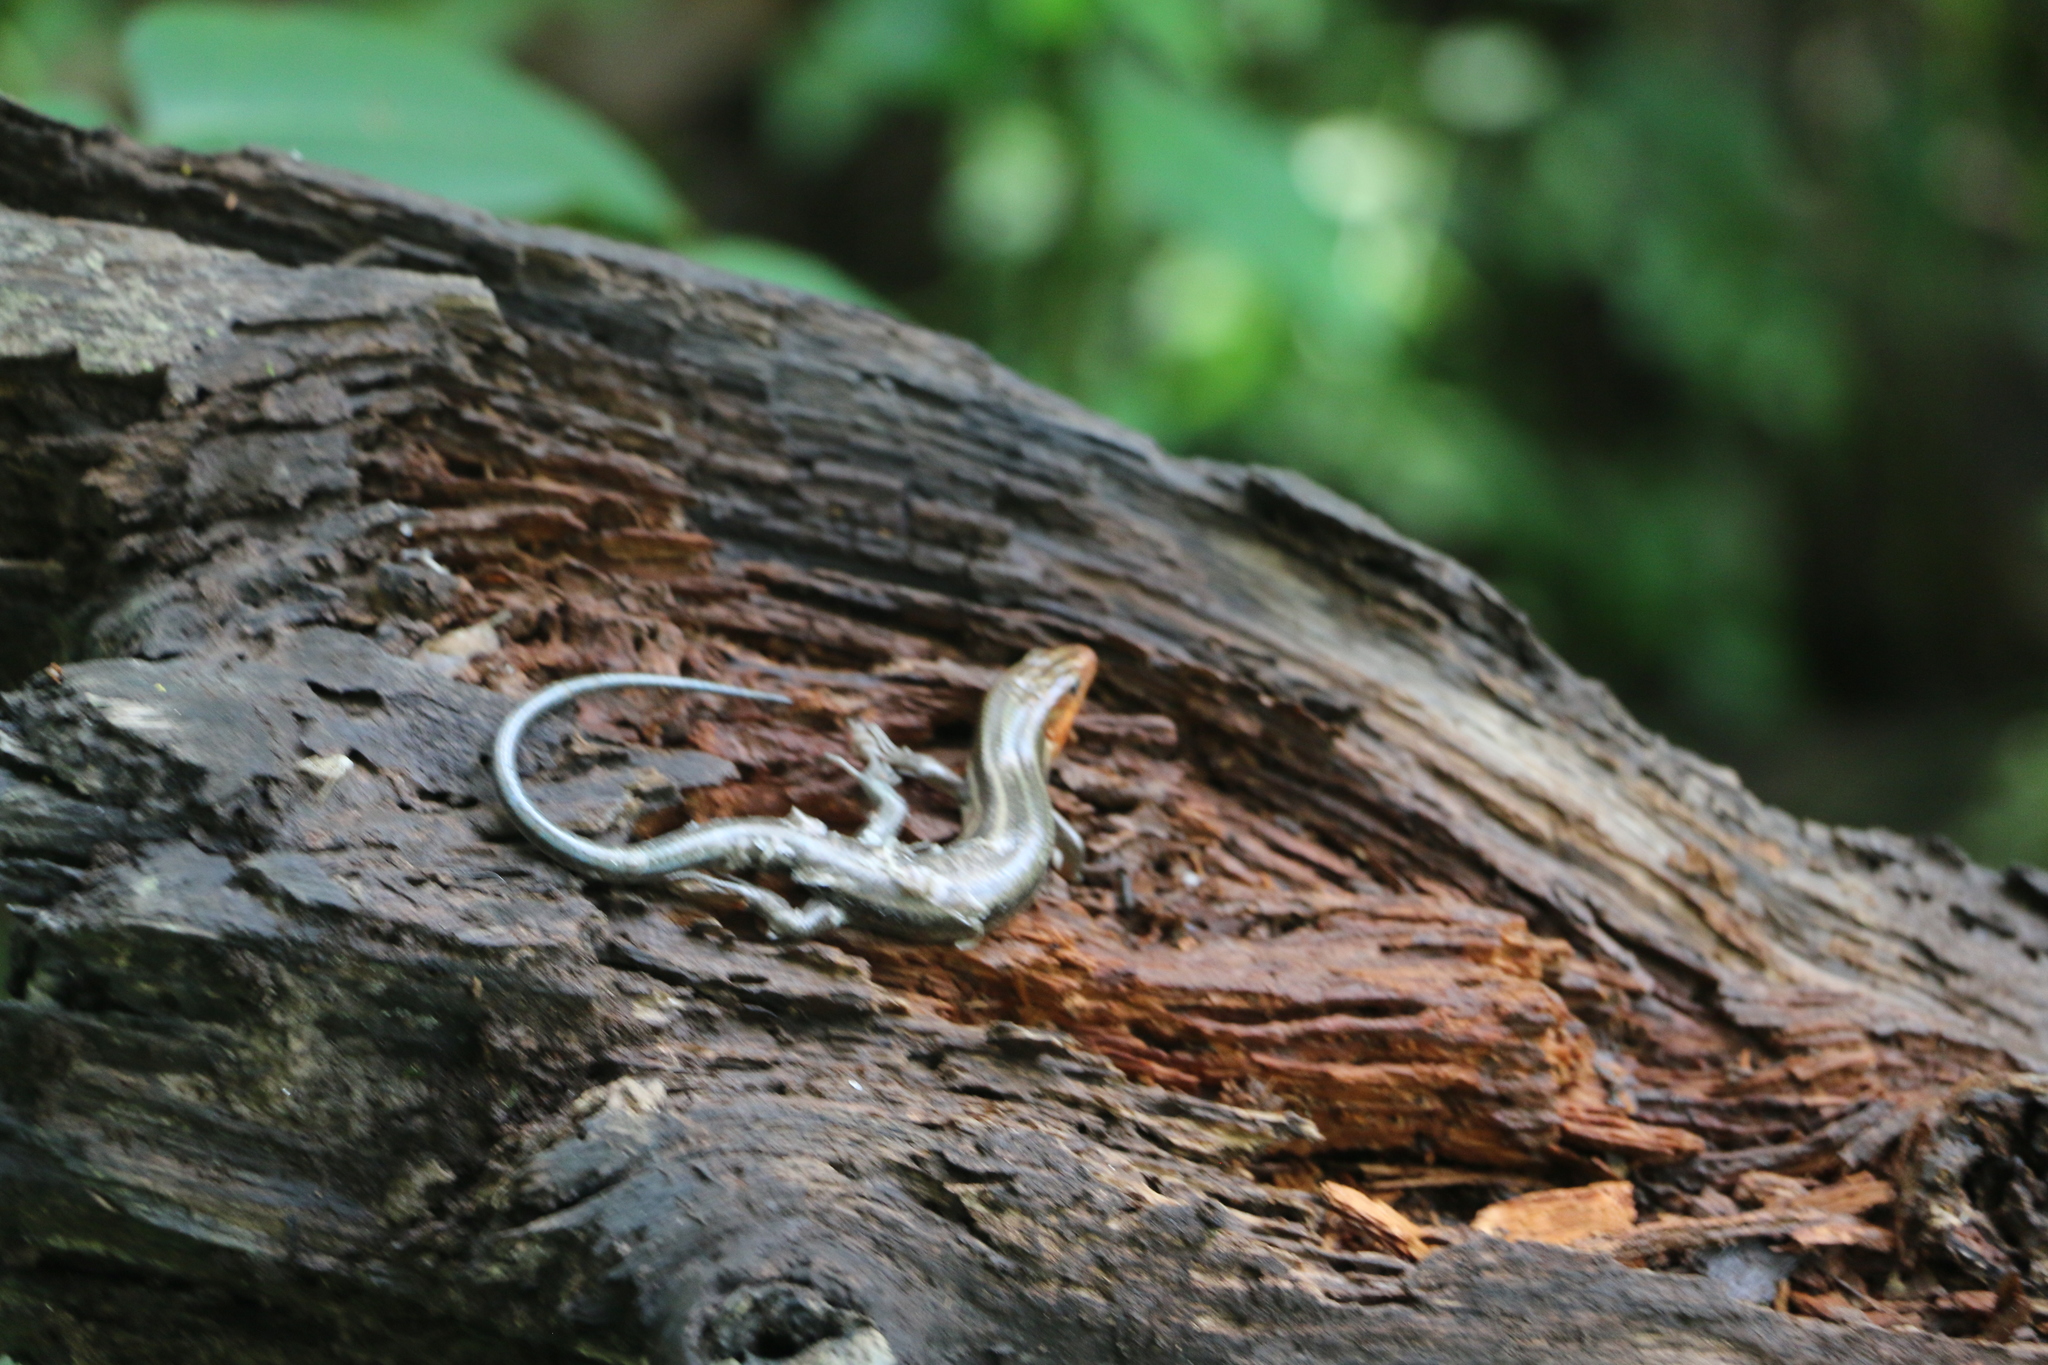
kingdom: Animalia
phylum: Chordata
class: Squamata
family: Scincidae
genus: Plestiodon
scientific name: Plestiodon fasciatus
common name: Five-lined skink
